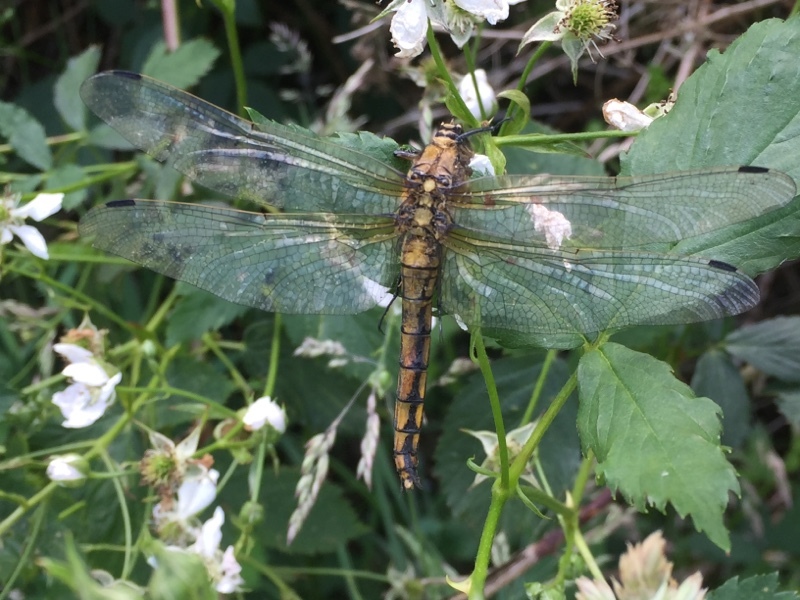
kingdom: Animalia
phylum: Arthropoda
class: Insecta
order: Odonata
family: Libellulidae
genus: Orthetrum
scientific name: Orthetrum cancellatum
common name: Black-tailed skimmer
